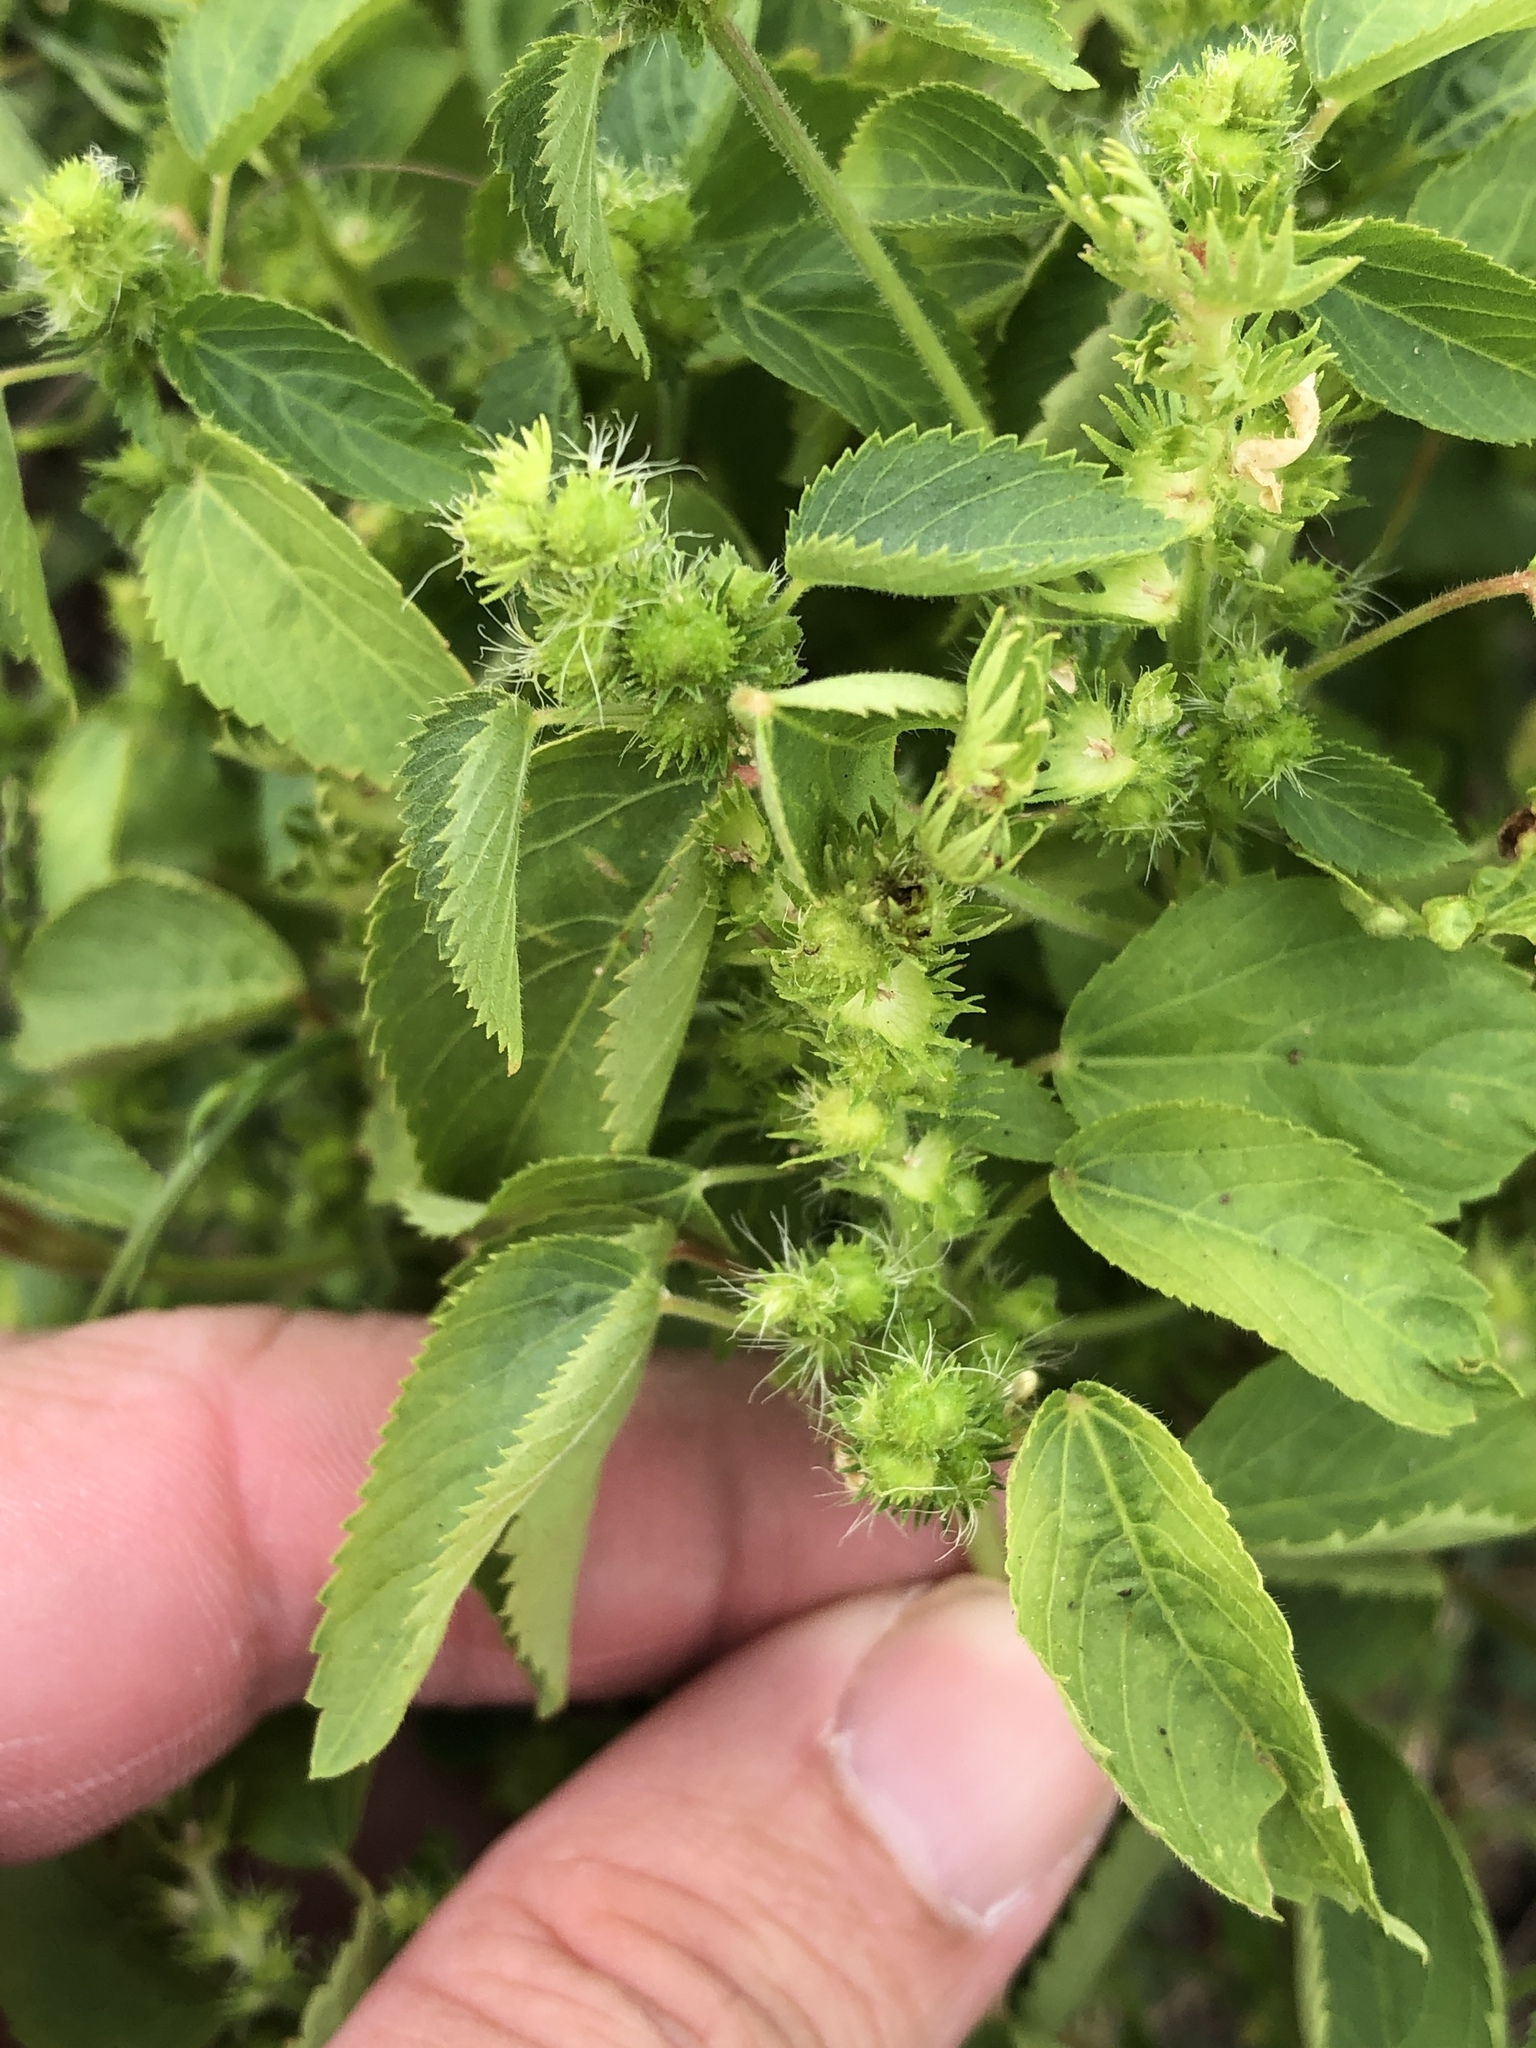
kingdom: Plantae
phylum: Tracheophyta
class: Magnoliopsida
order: Malpighiales
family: Euphorbiaceae
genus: Acalypha
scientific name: Acalypha ostryifolia
